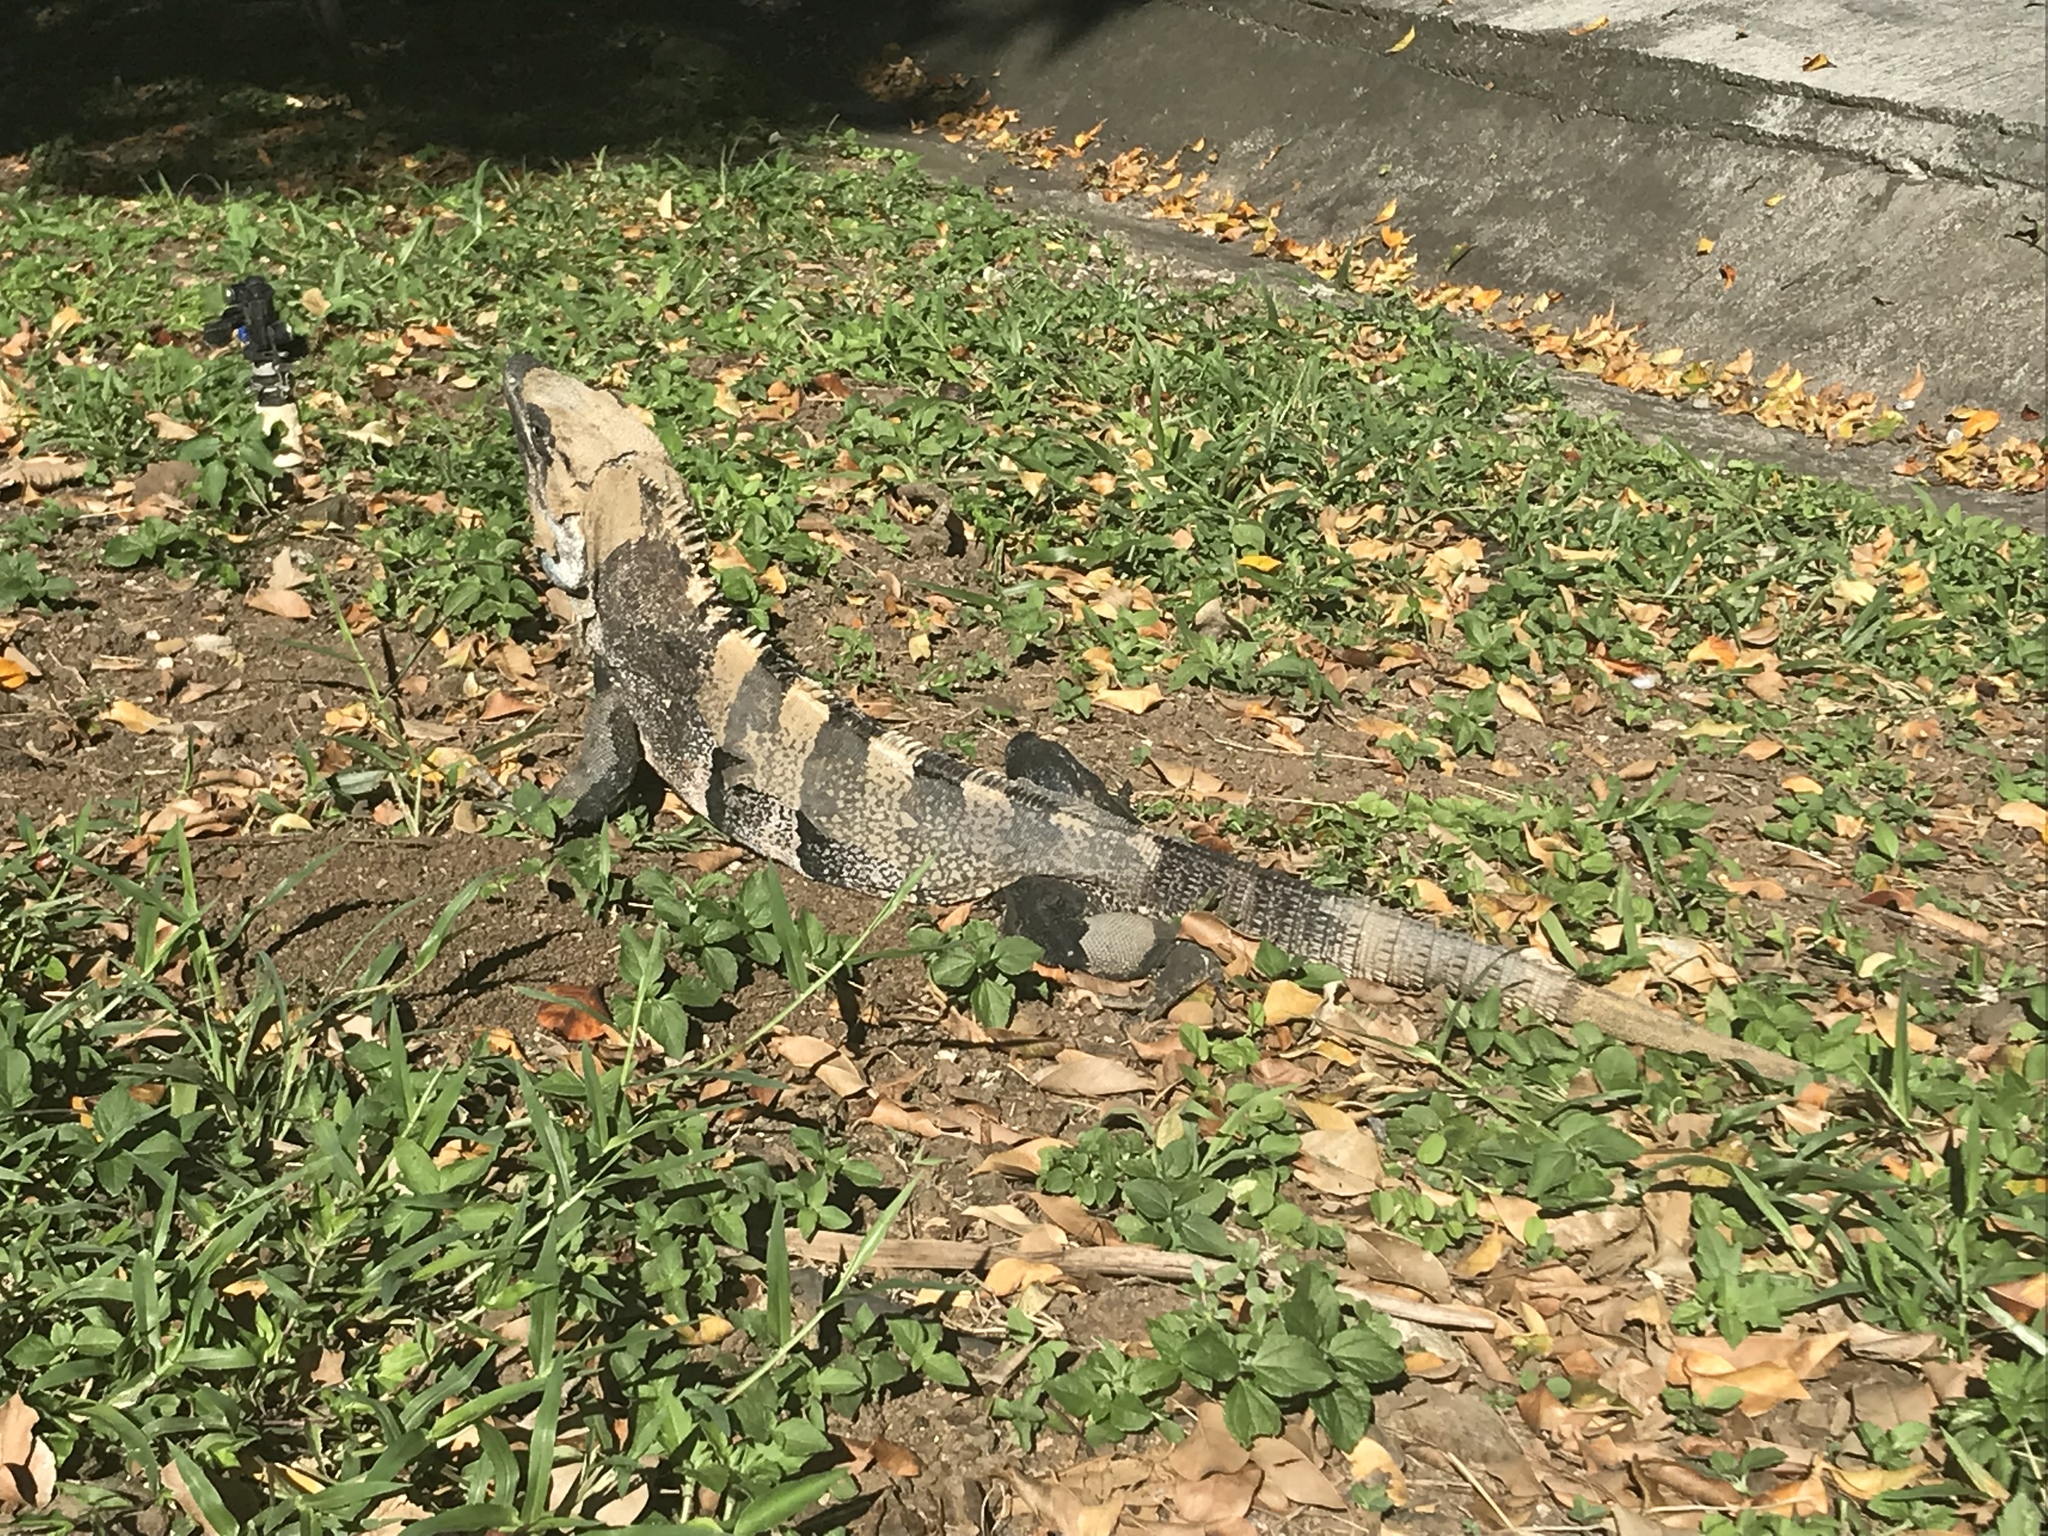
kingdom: Animalia
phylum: Chordata
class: Squamata
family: Iguanidae
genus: Ctenosaura
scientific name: Ctenosaura similis
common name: Black spiny-tailed iguana
